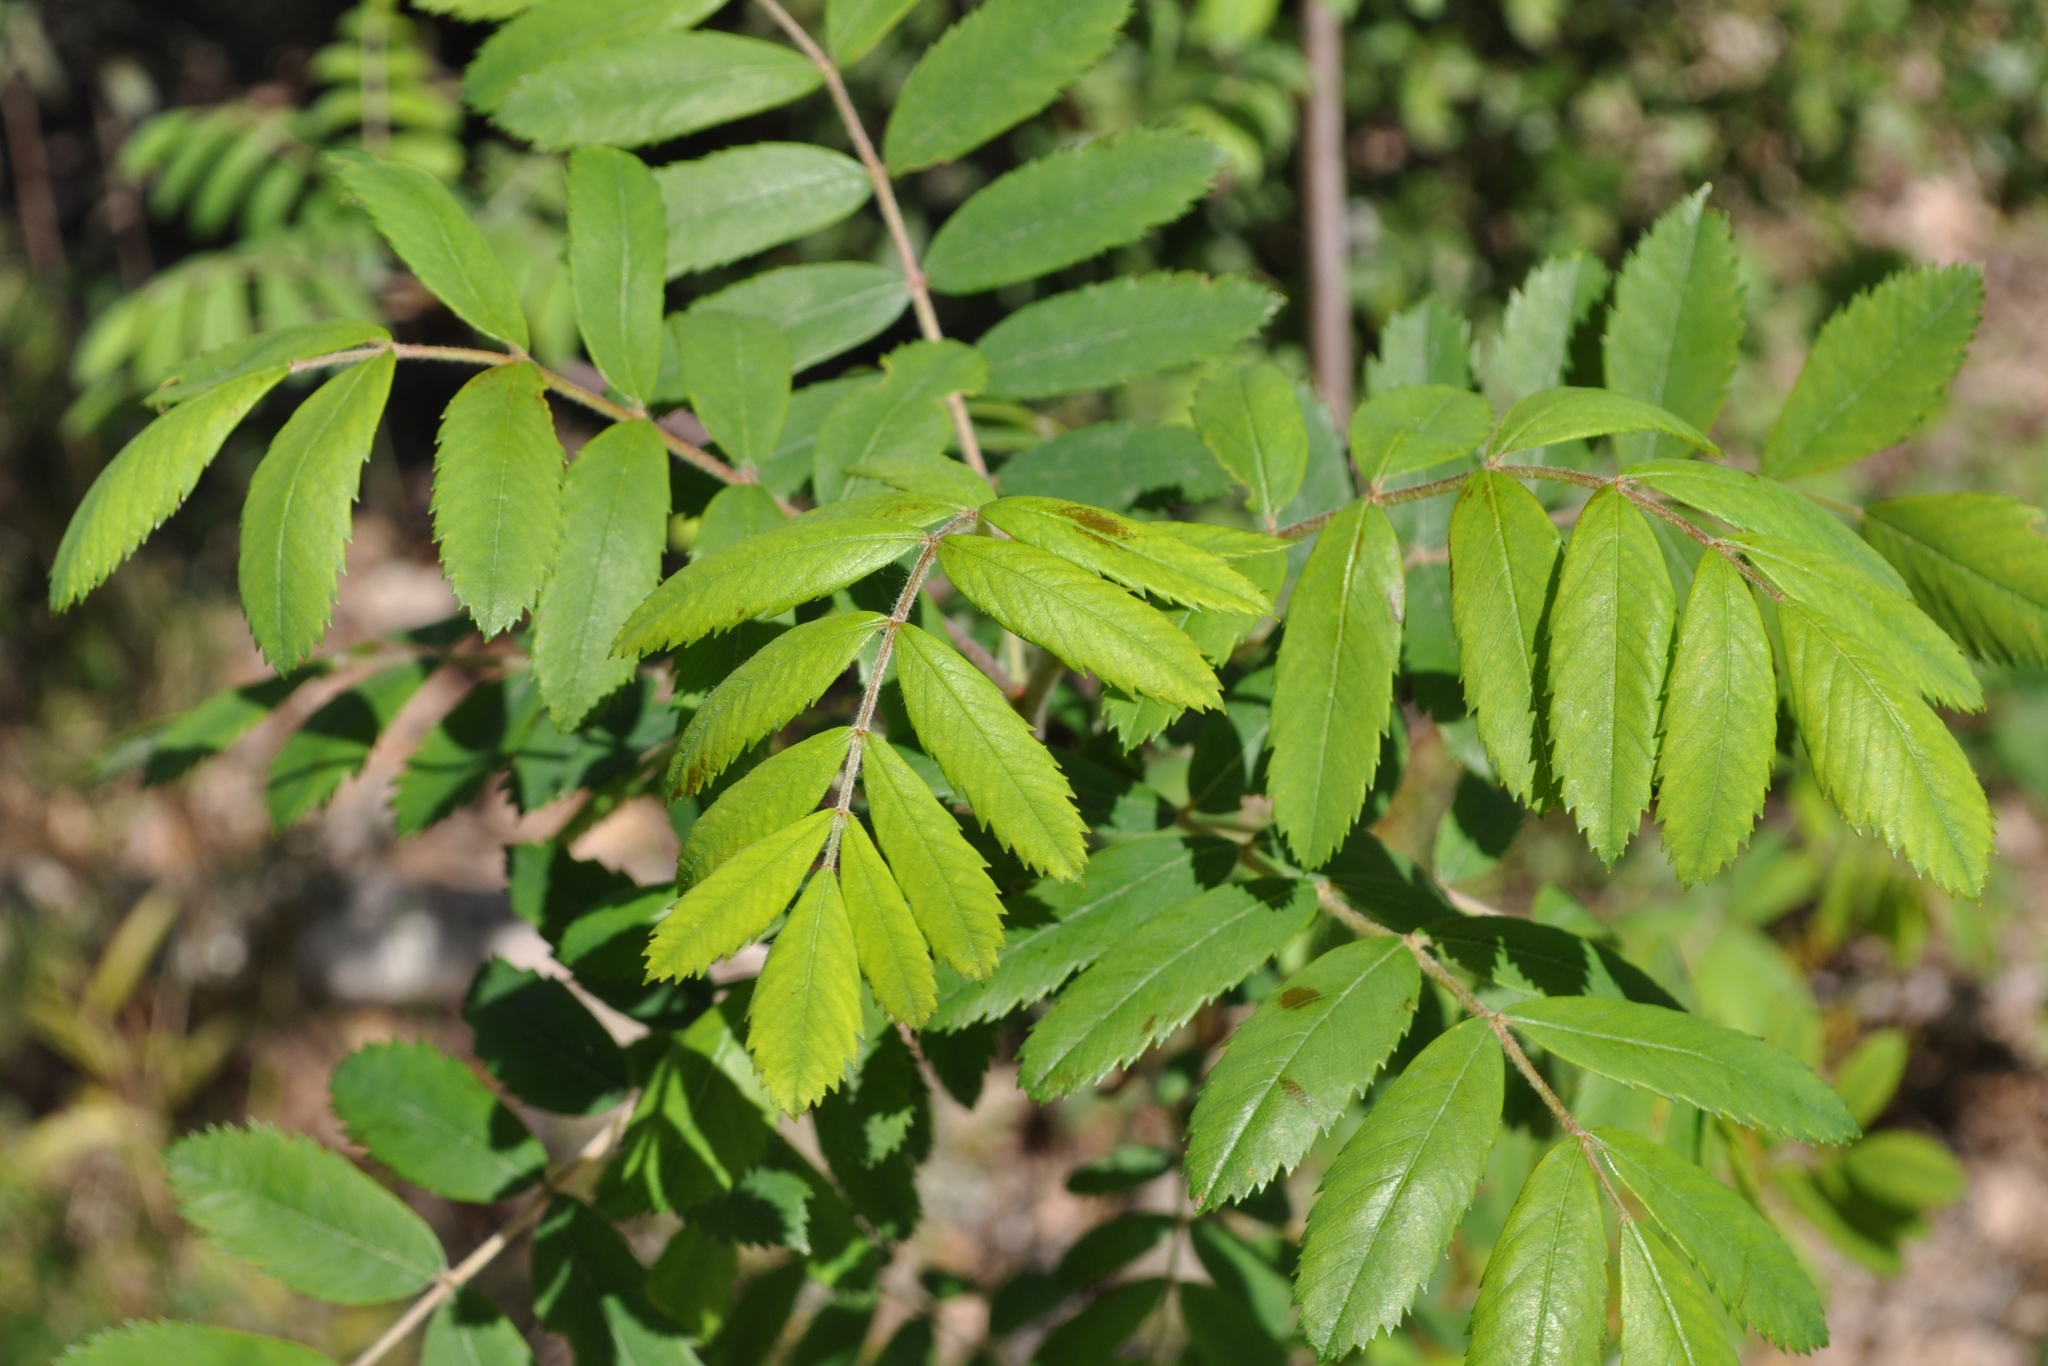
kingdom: Plantae
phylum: Tracheophyta
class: Magnoliopsida
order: Rosales
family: Rosaceae
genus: Cormus
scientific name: Cormus domestica
